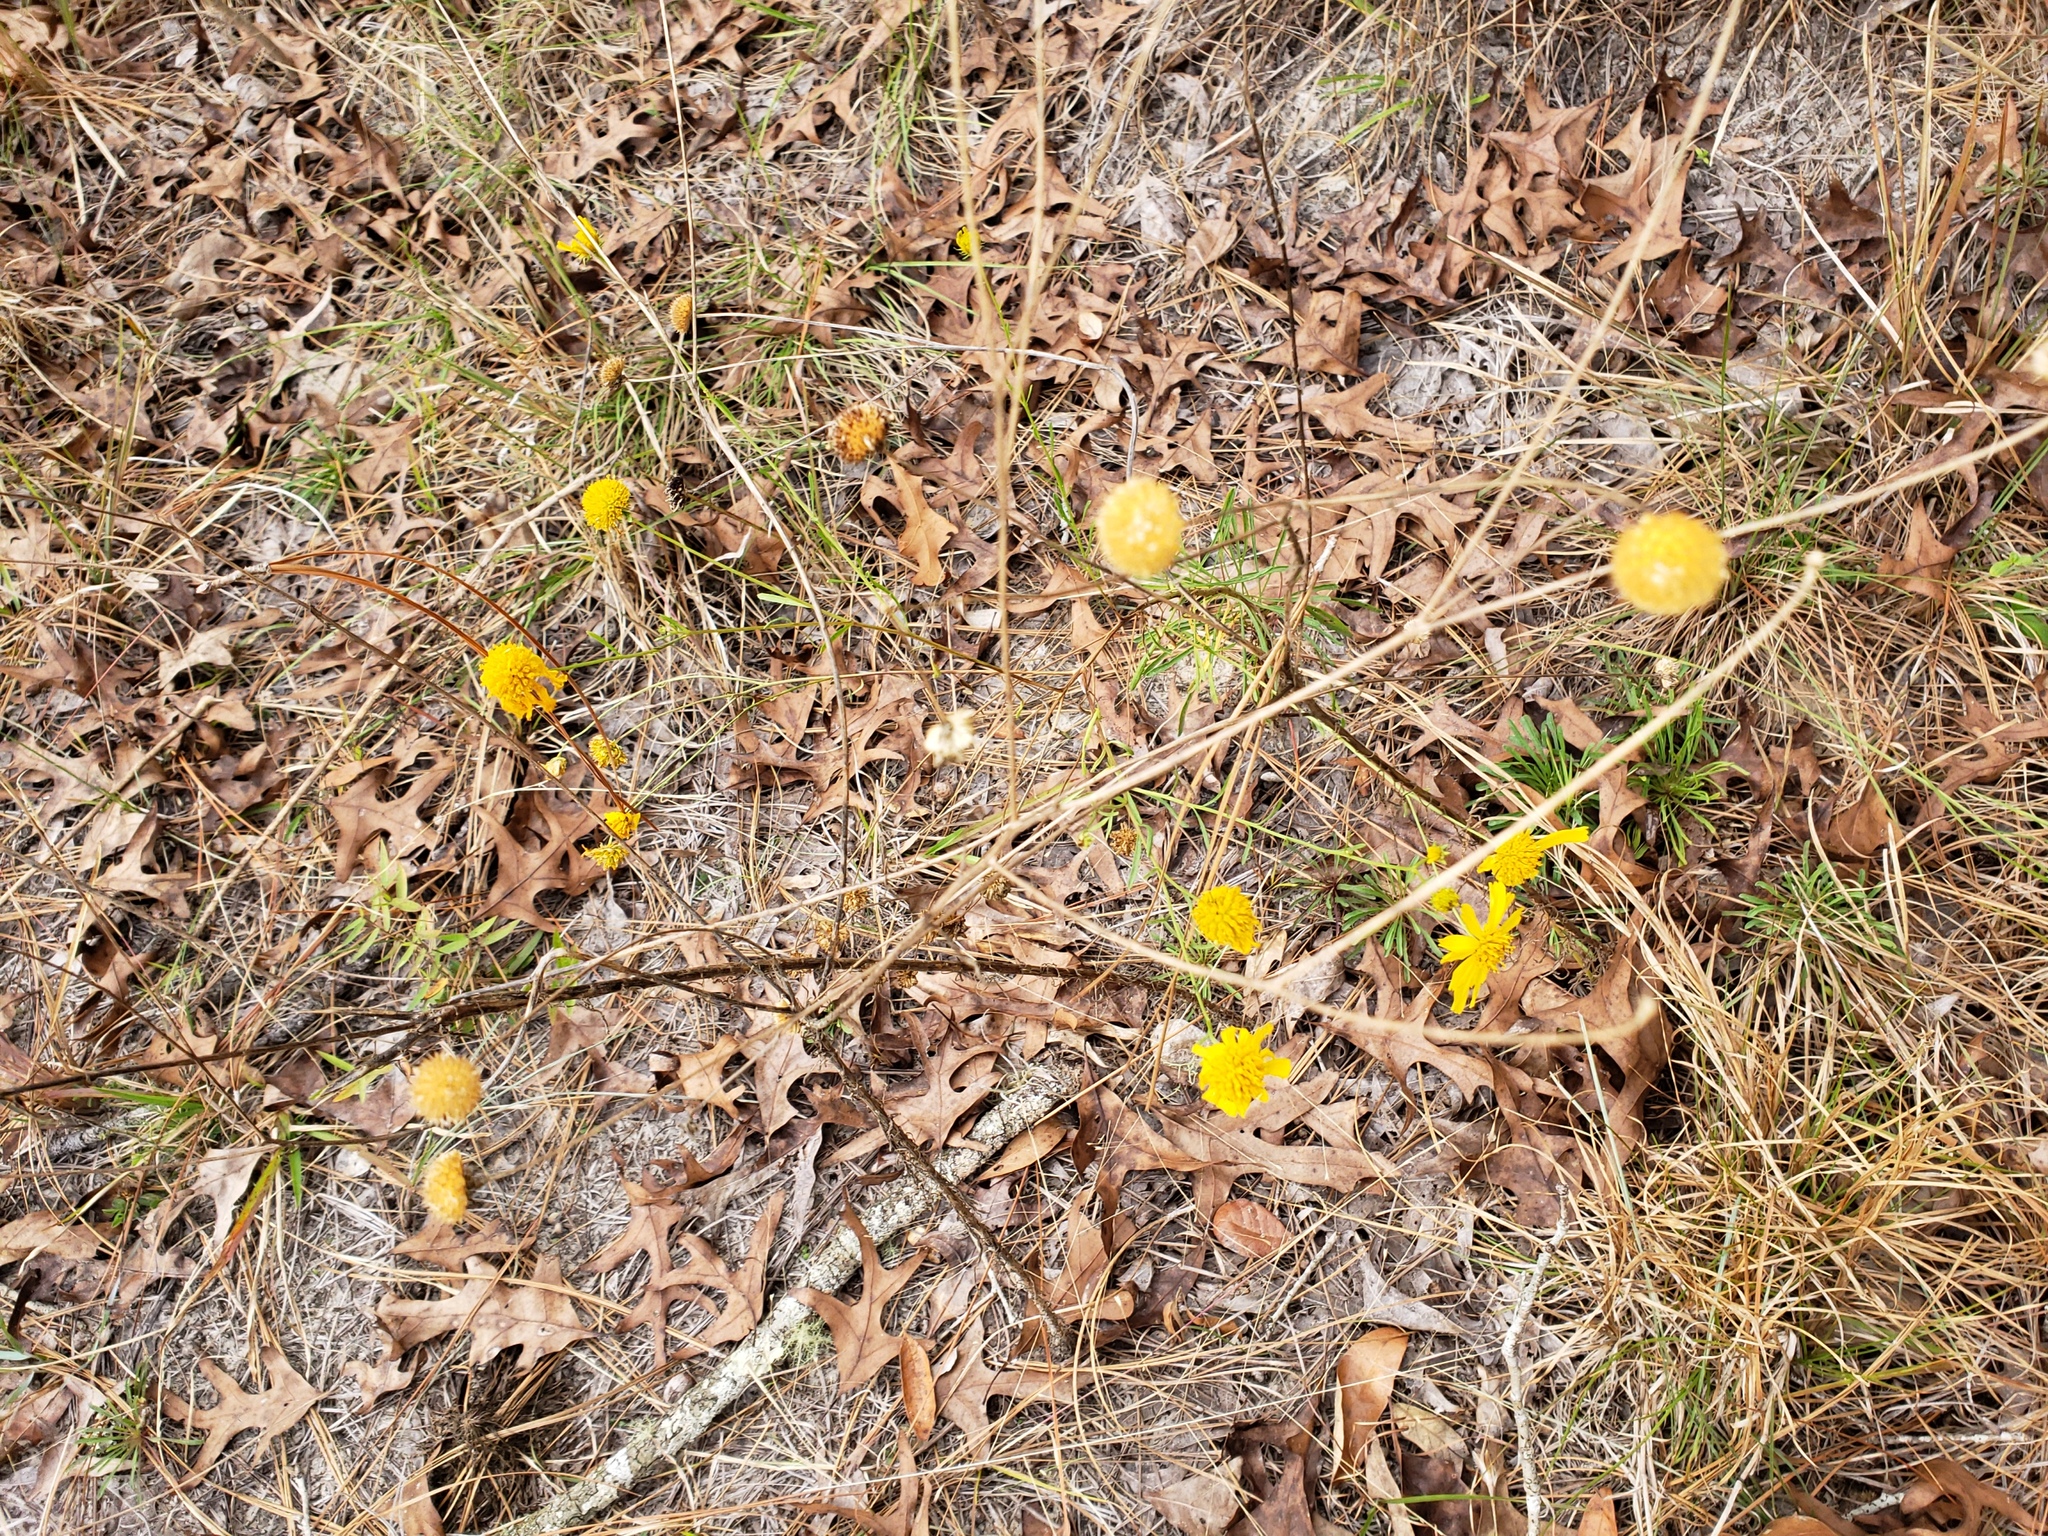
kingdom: Plantae
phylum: Tracheophyta
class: Magnoliopsida
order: Asterales
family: Asteraceae
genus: Balduina
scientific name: Balduina angustifolia
